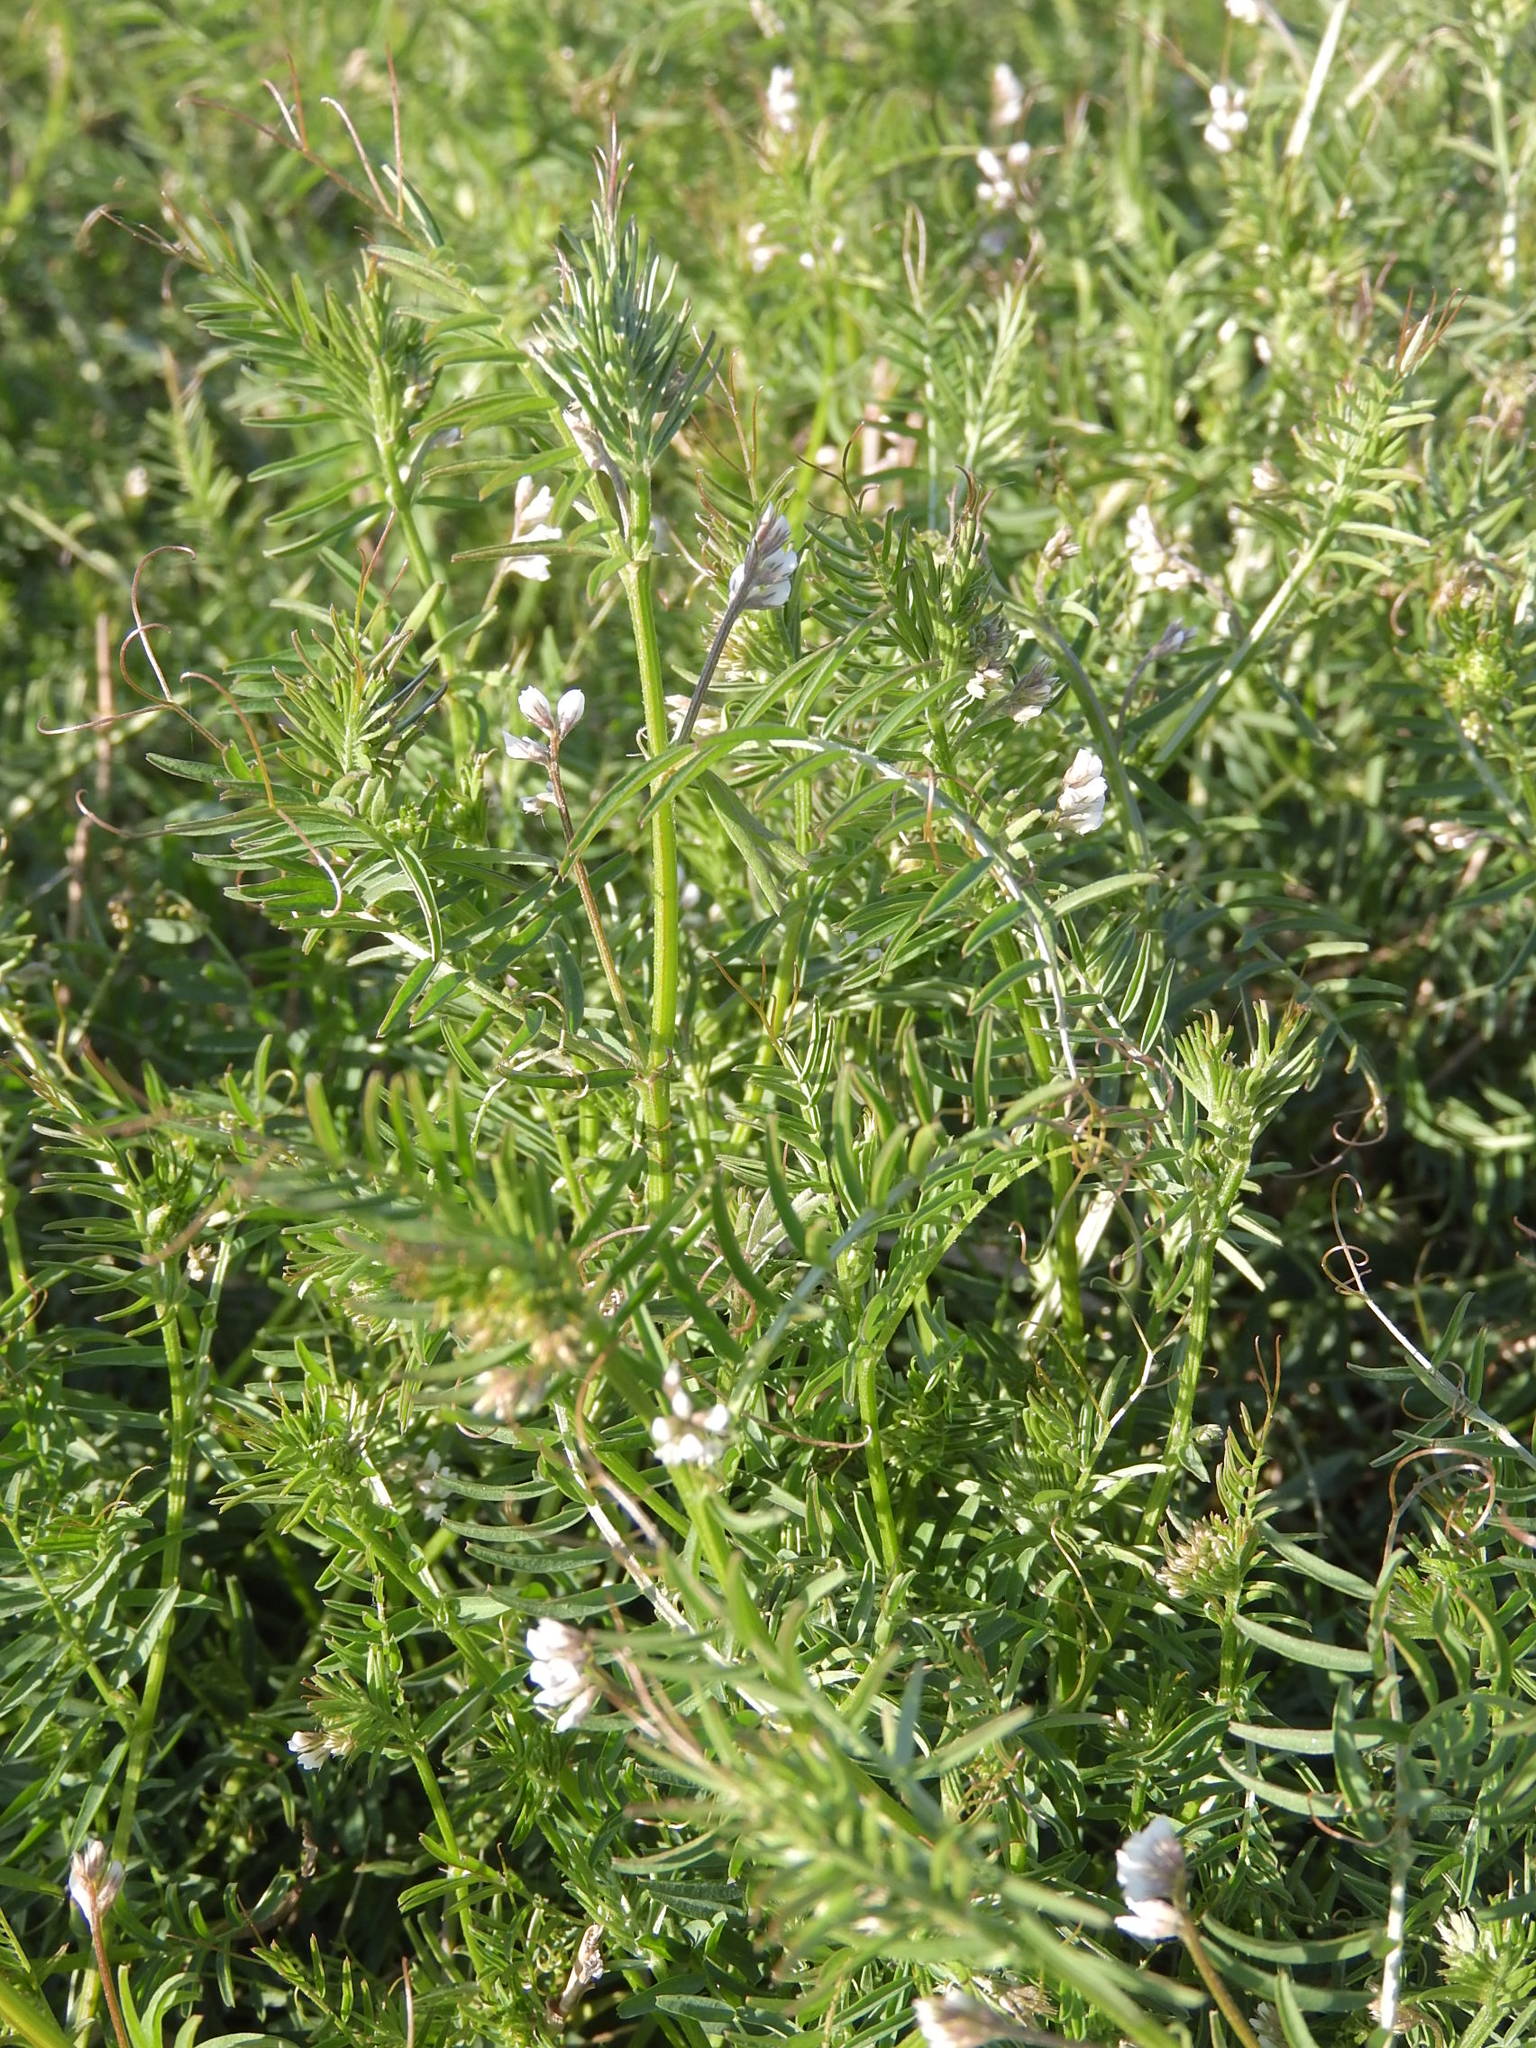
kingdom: Plantae
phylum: Tracheophyta
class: Magnoliopsida
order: Fabales
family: Fabaceae
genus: Vicia
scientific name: Vicia hirsuta
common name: Tiny vetch
